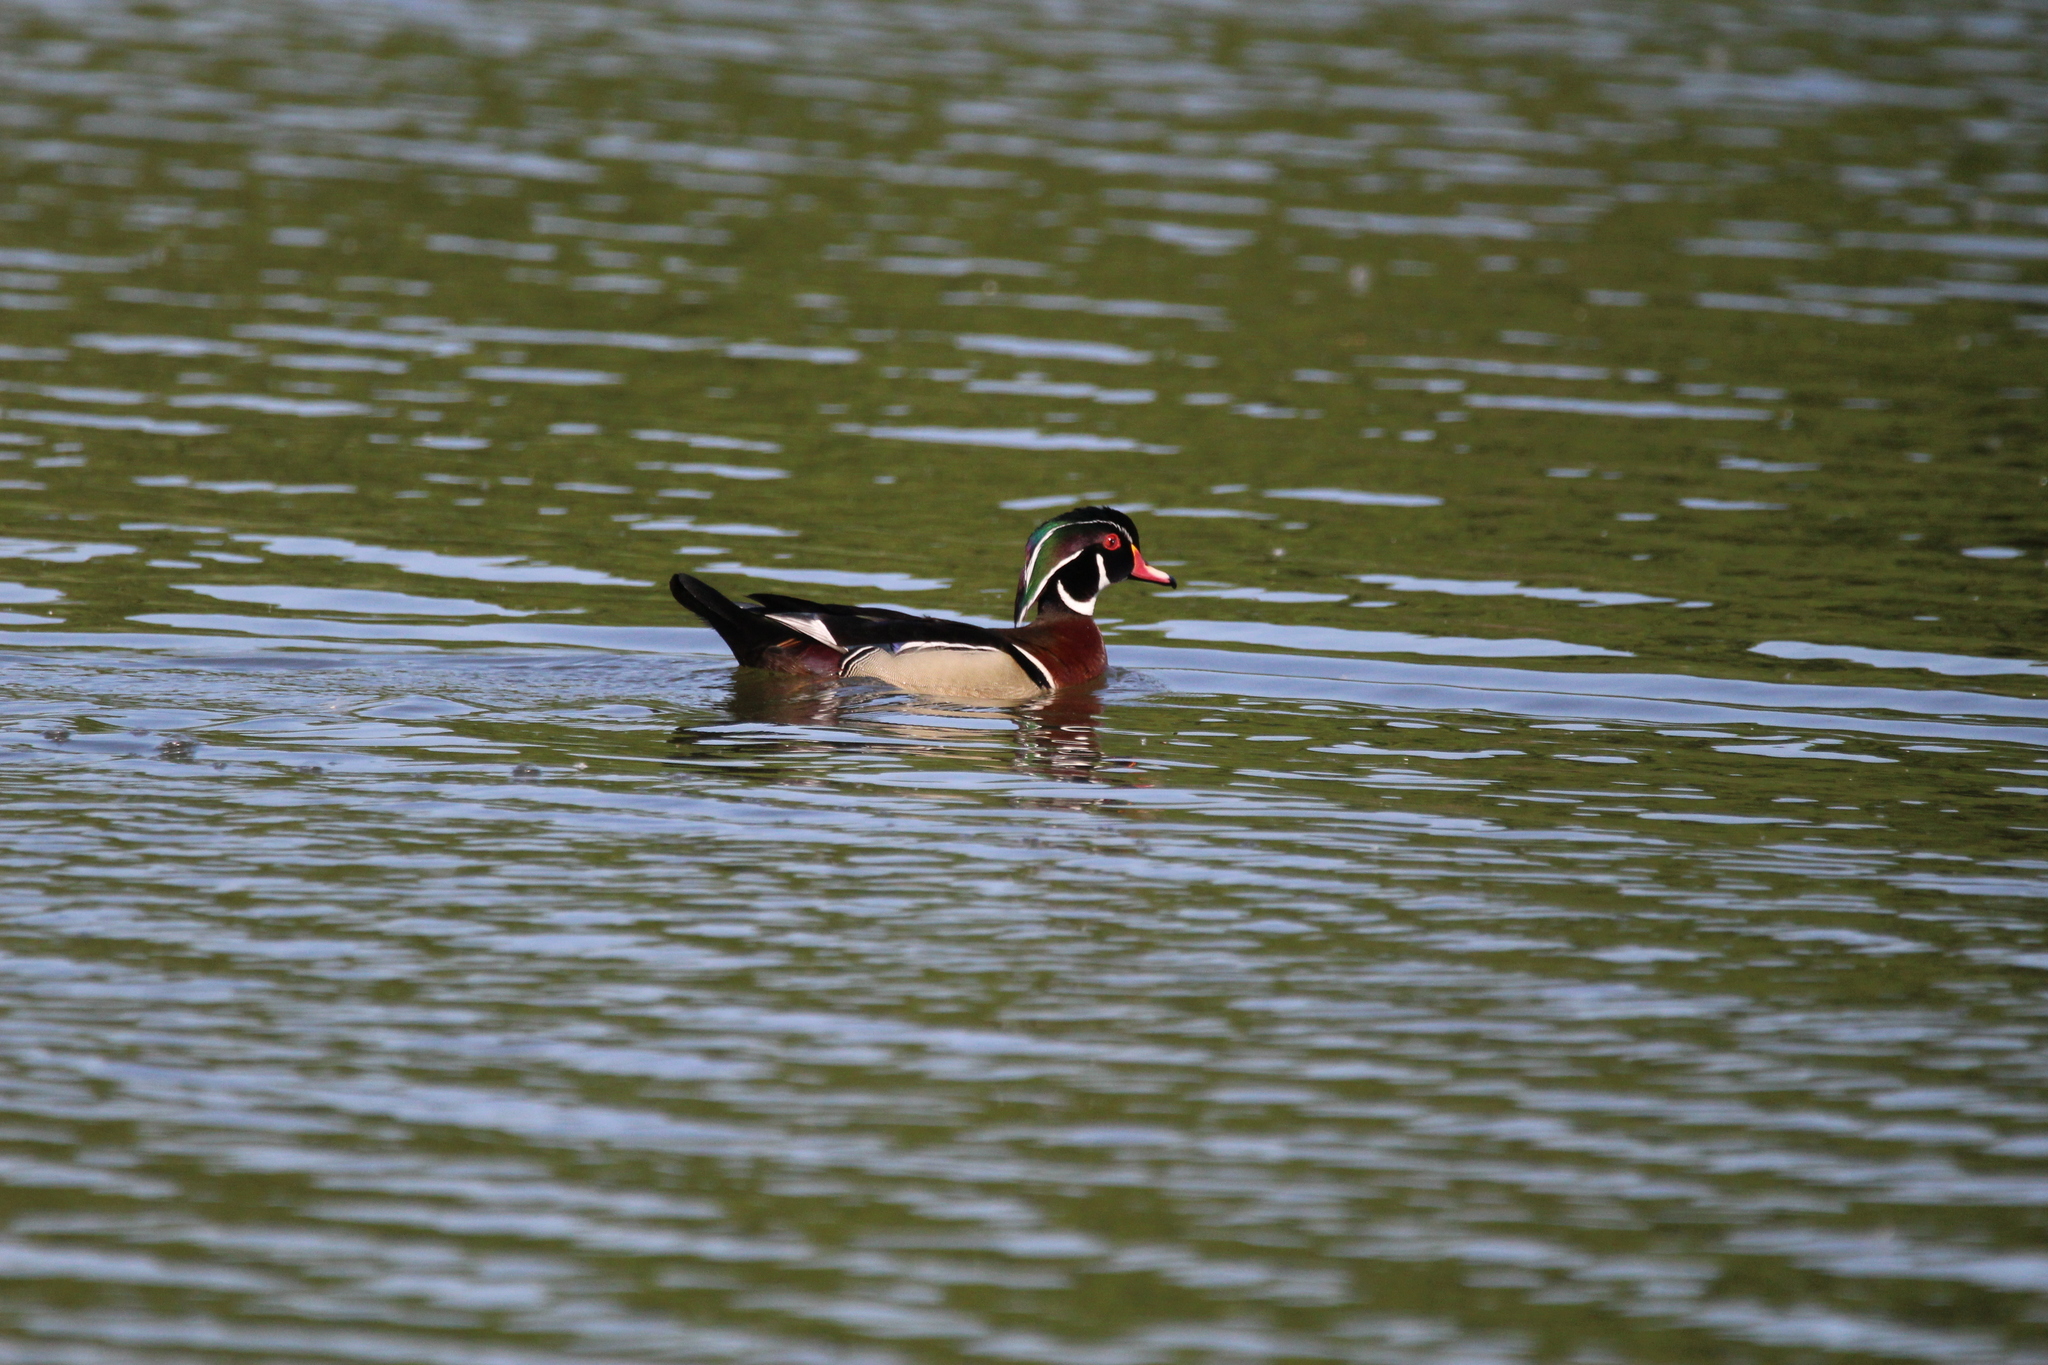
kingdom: Animalia
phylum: Chordata
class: Aves
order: Anseriformes
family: Anatidae
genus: Aix
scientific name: Aix sponsa
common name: Wood duck
